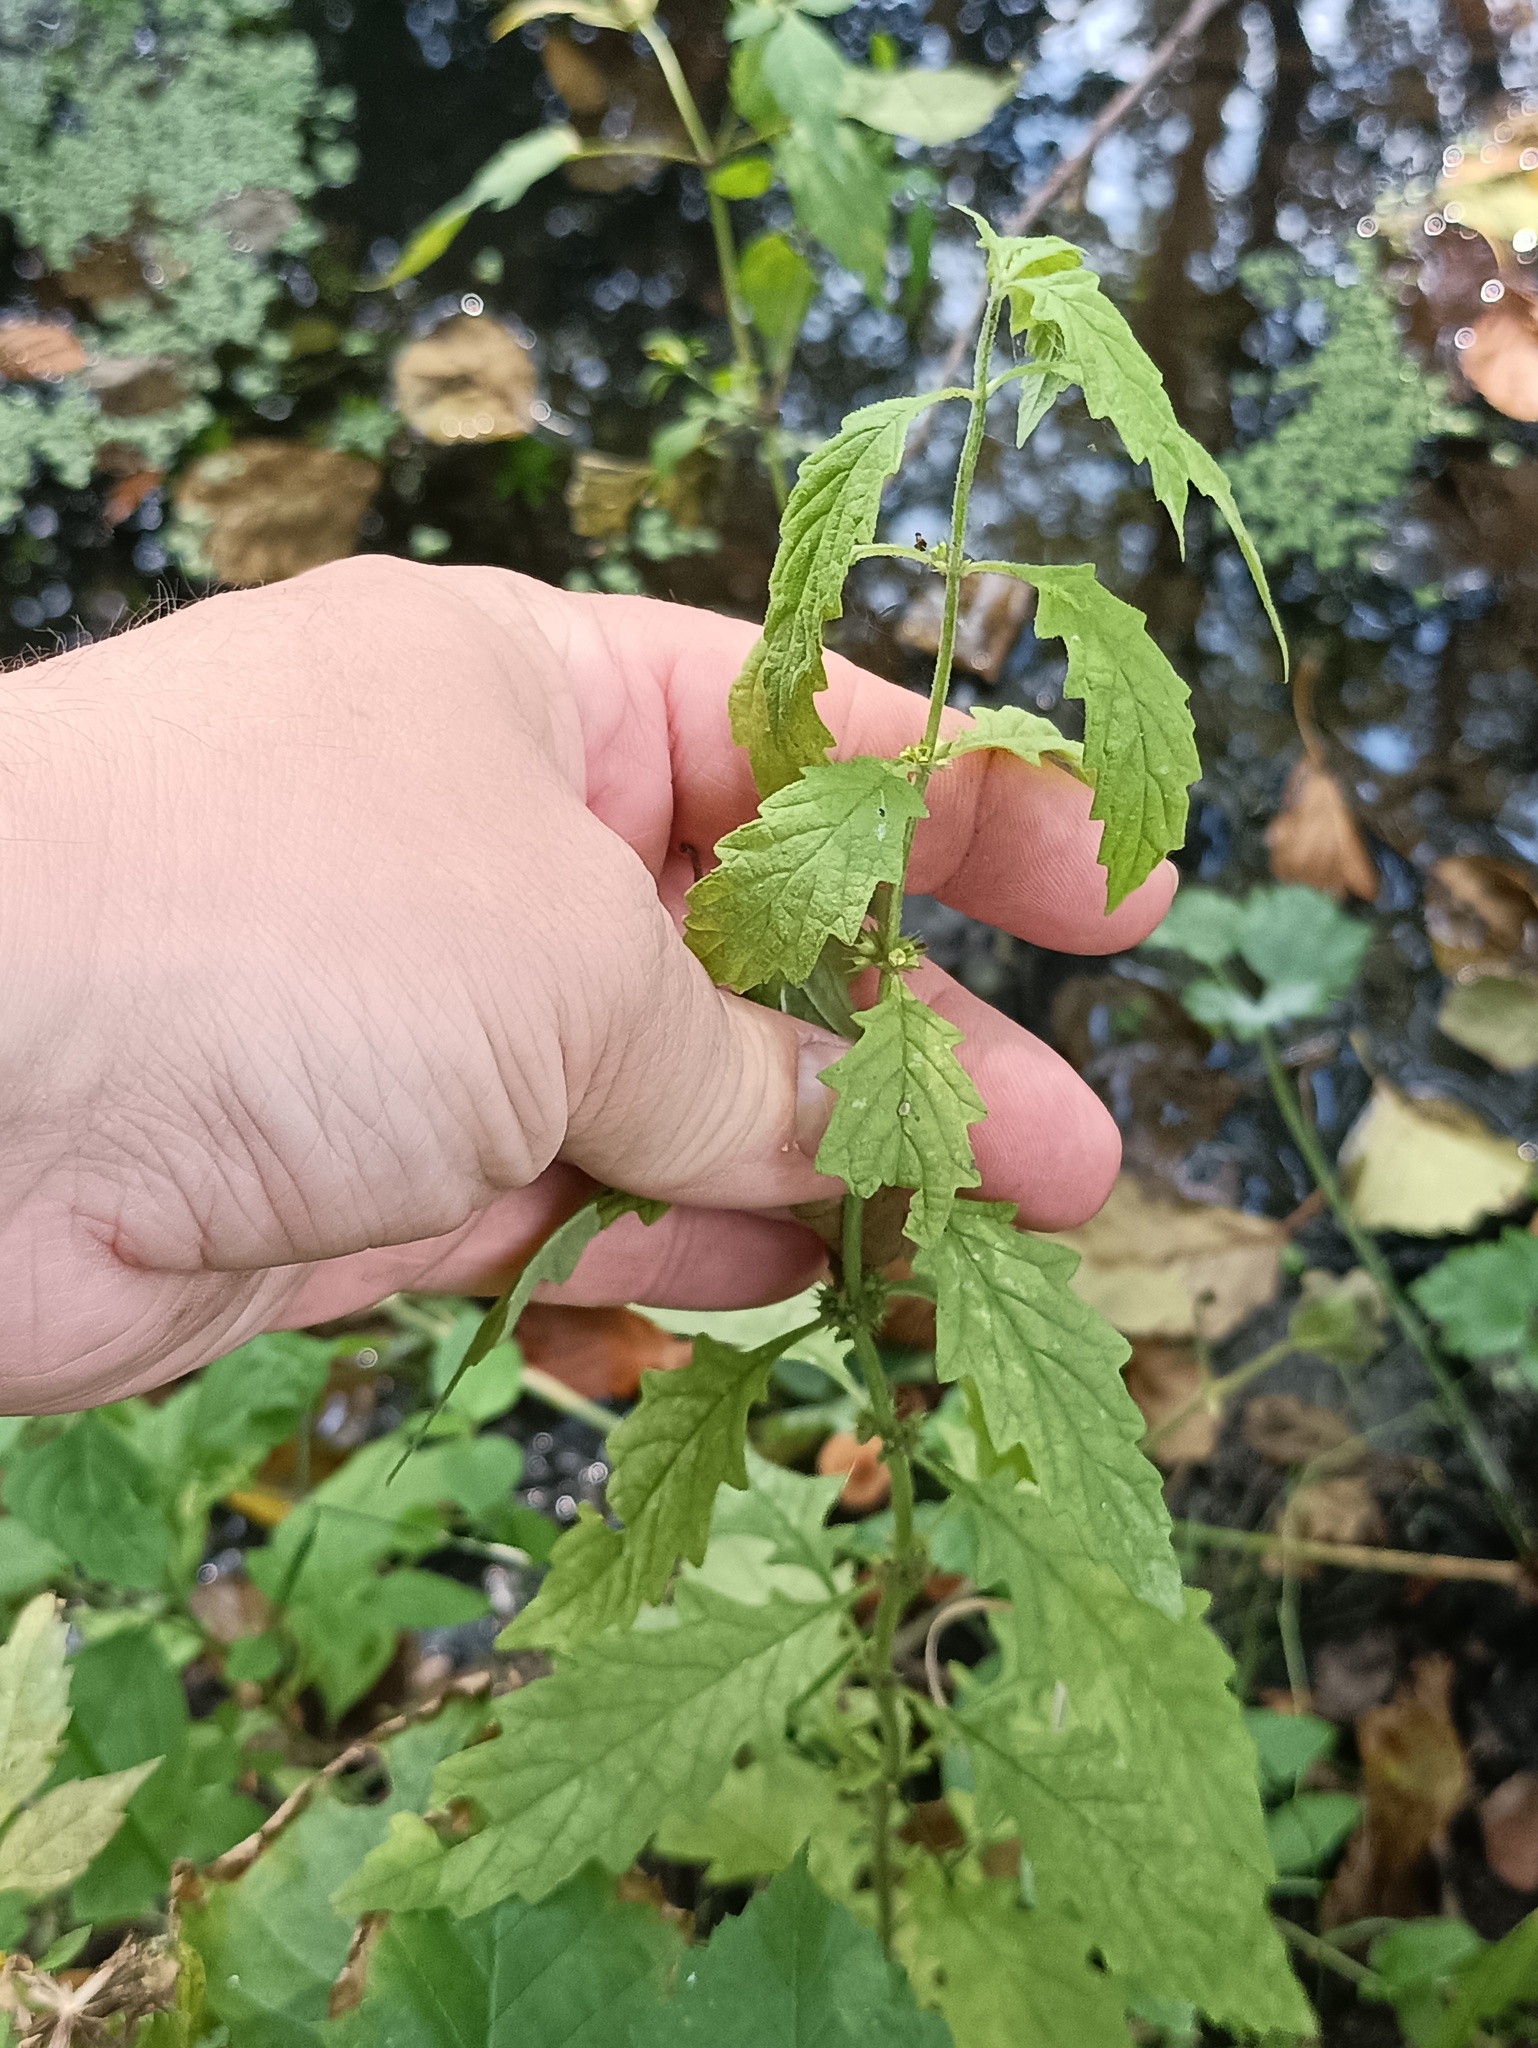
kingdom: Plantae
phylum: Tracheophyta
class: Magnoliopsida
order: Lamiales
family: Lamiaceae
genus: Lycopus
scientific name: Lycopus europaeus
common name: European bugleweed
